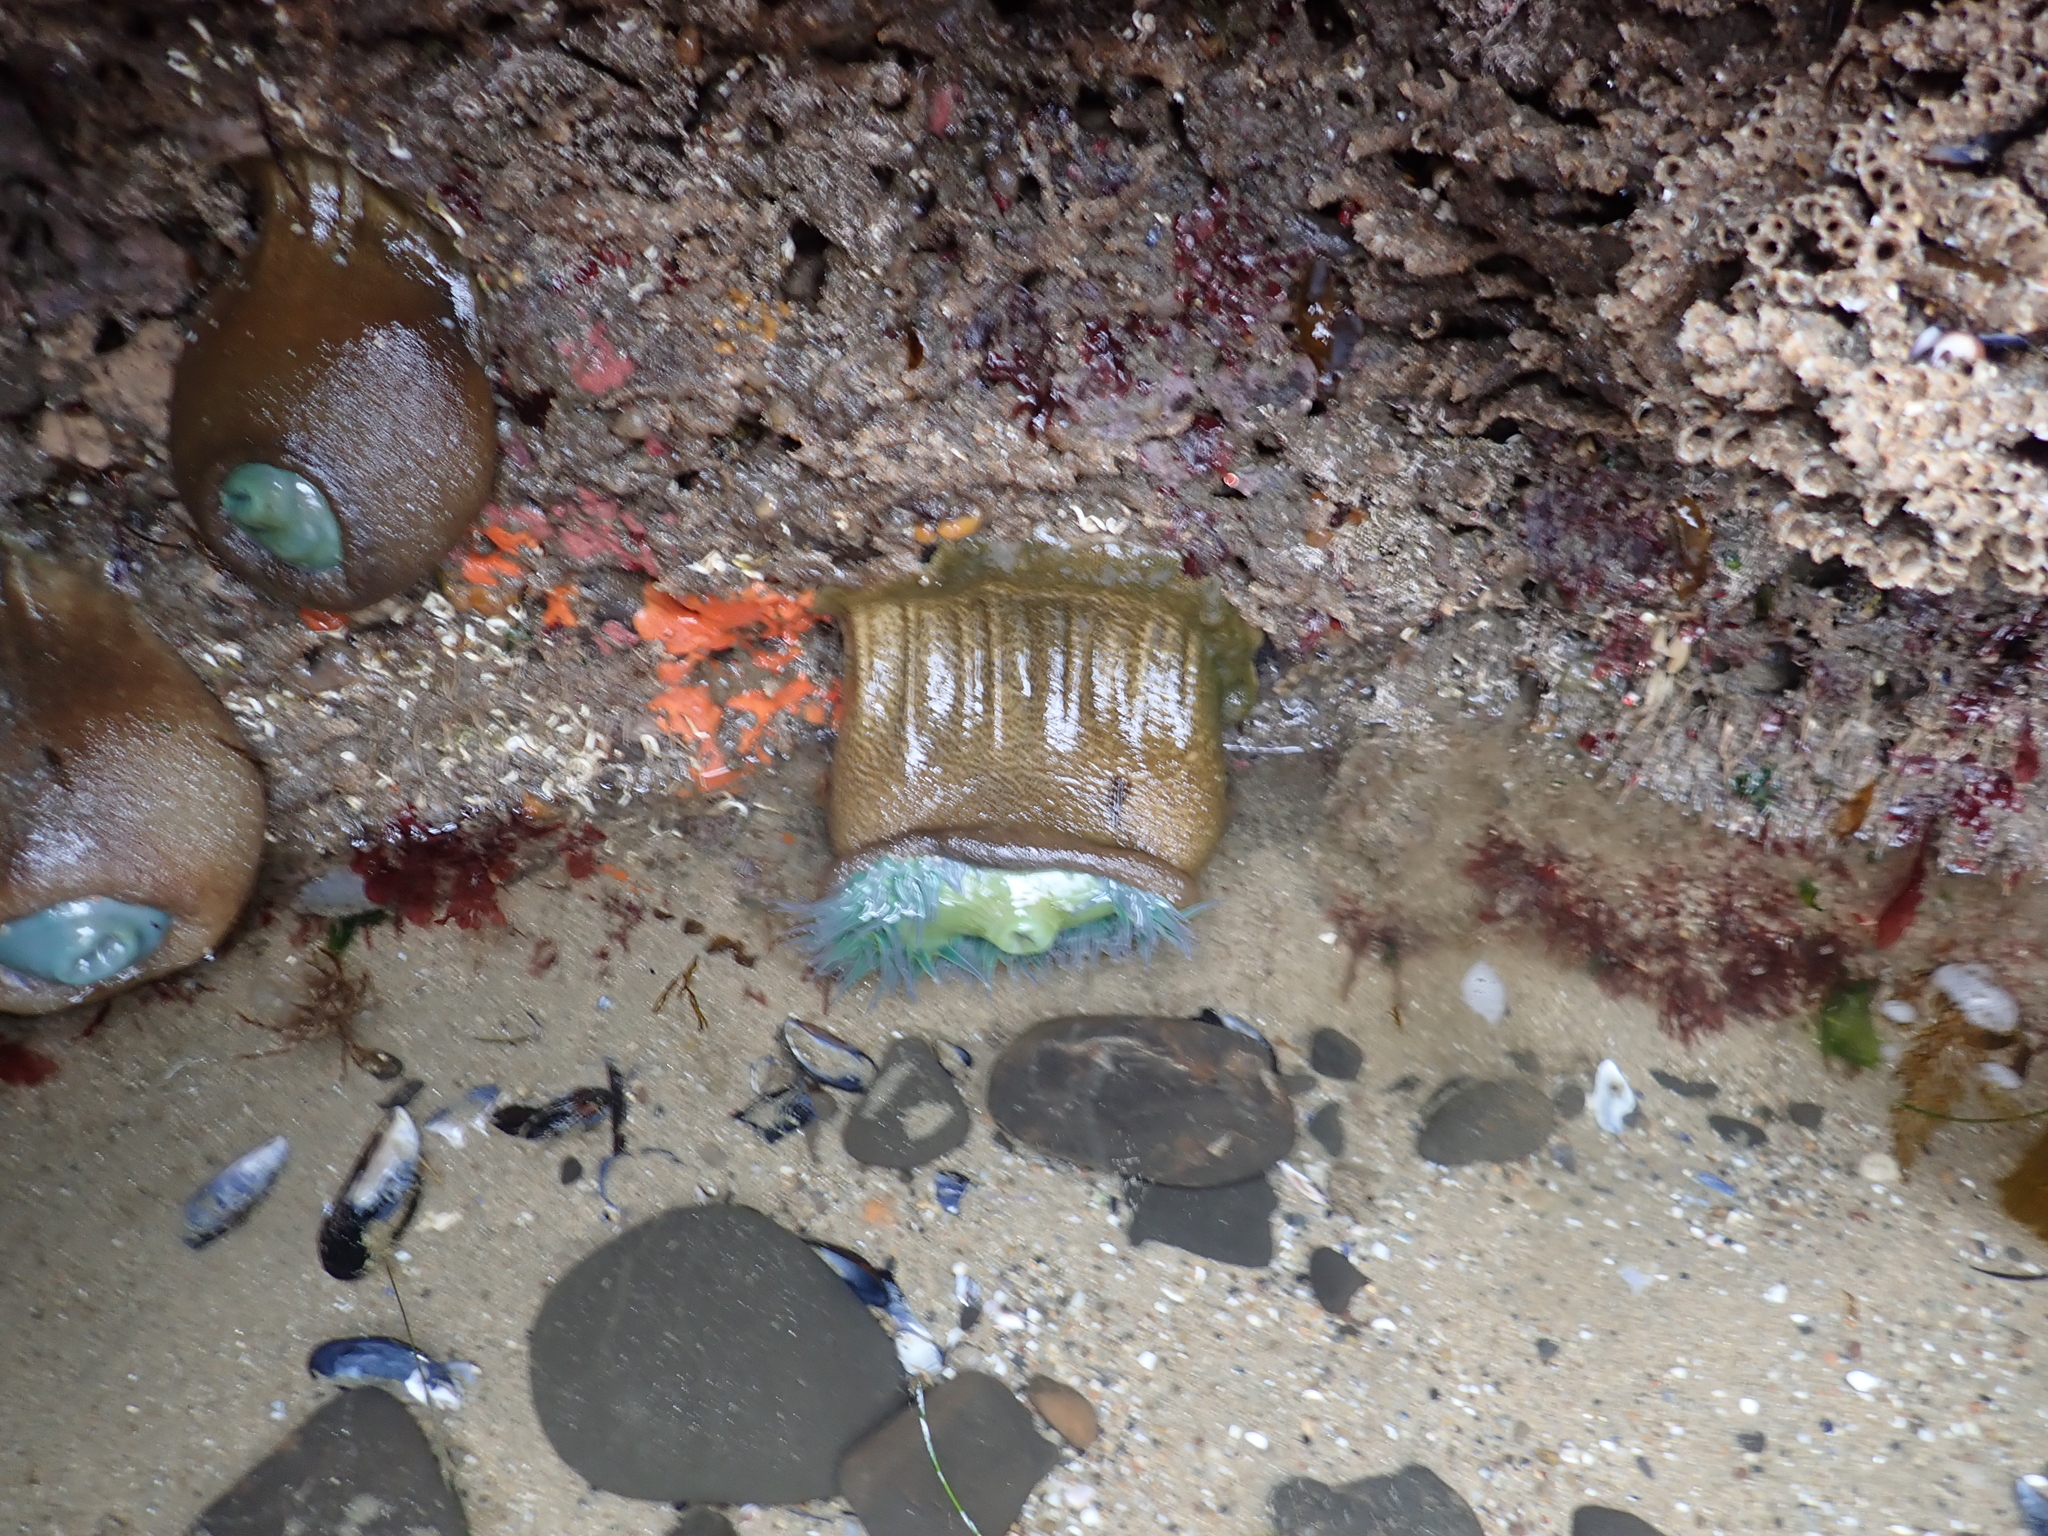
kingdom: Animalia
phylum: Cnidaria
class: Anthozoa
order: Actiniaria
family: Actiniidae
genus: Anthopleura
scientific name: Anthopleura xanthogrammica
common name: Giant green anemone
